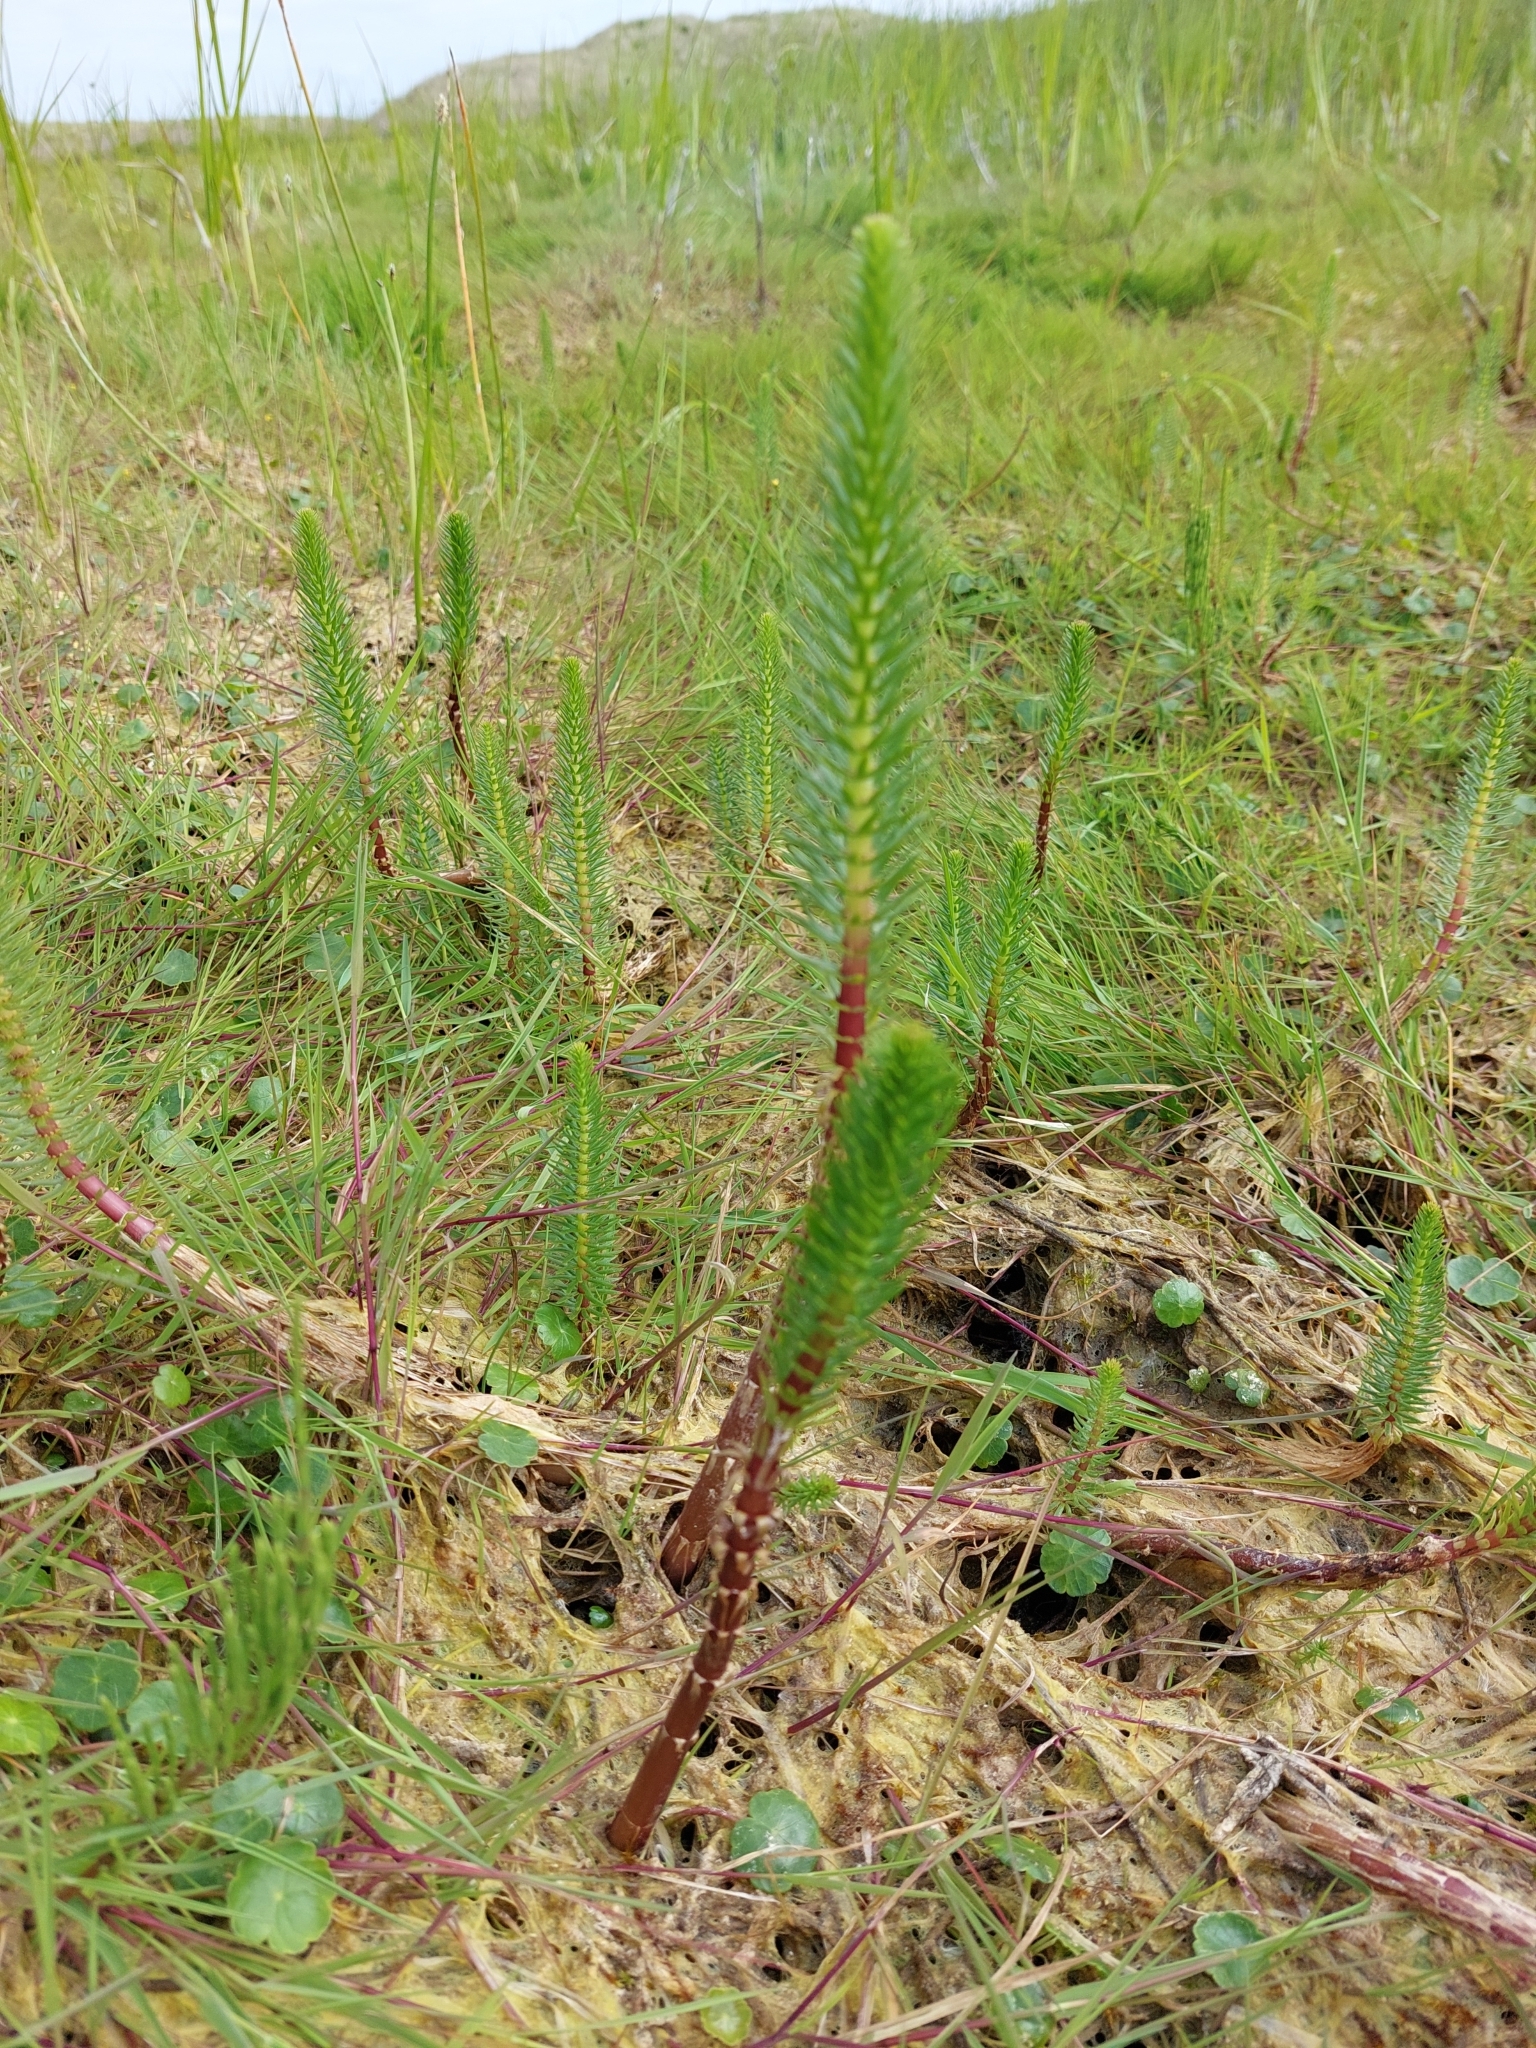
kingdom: Plantae
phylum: Tracheophyta
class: Magnoliopsida
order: Lamiales
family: Plantaginaceae
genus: Hippuris
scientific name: Hippuris vulgaris
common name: Mare's-tail
